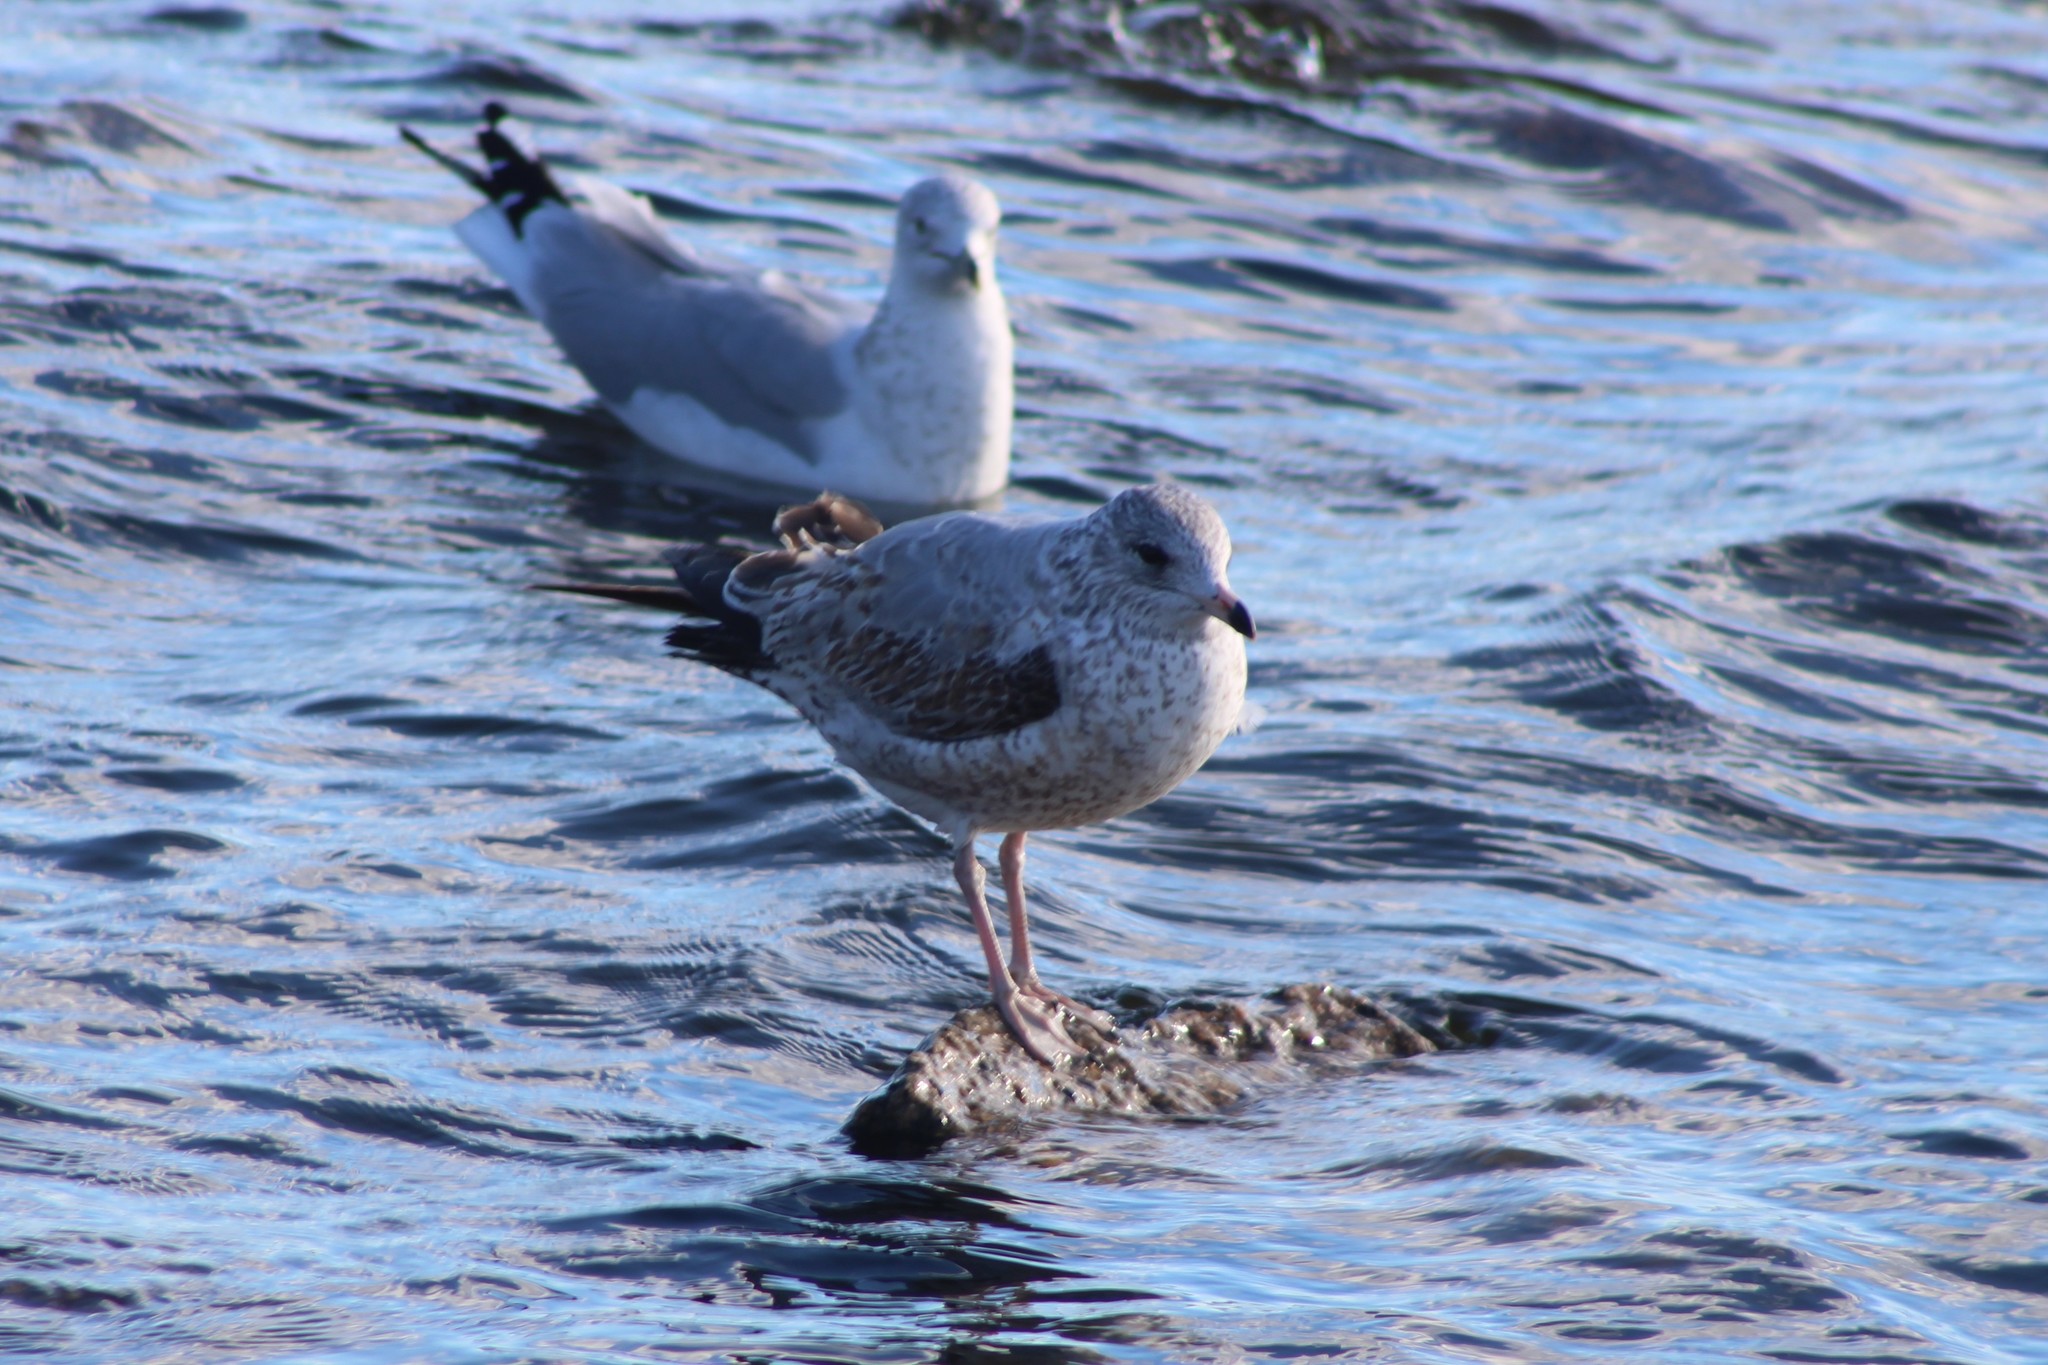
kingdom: Animalia
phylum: Chordata
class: Aves
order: Charadriiformes
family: Laridae
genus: Larus
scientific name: Larus delawarensis
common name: Ring-billed gull
